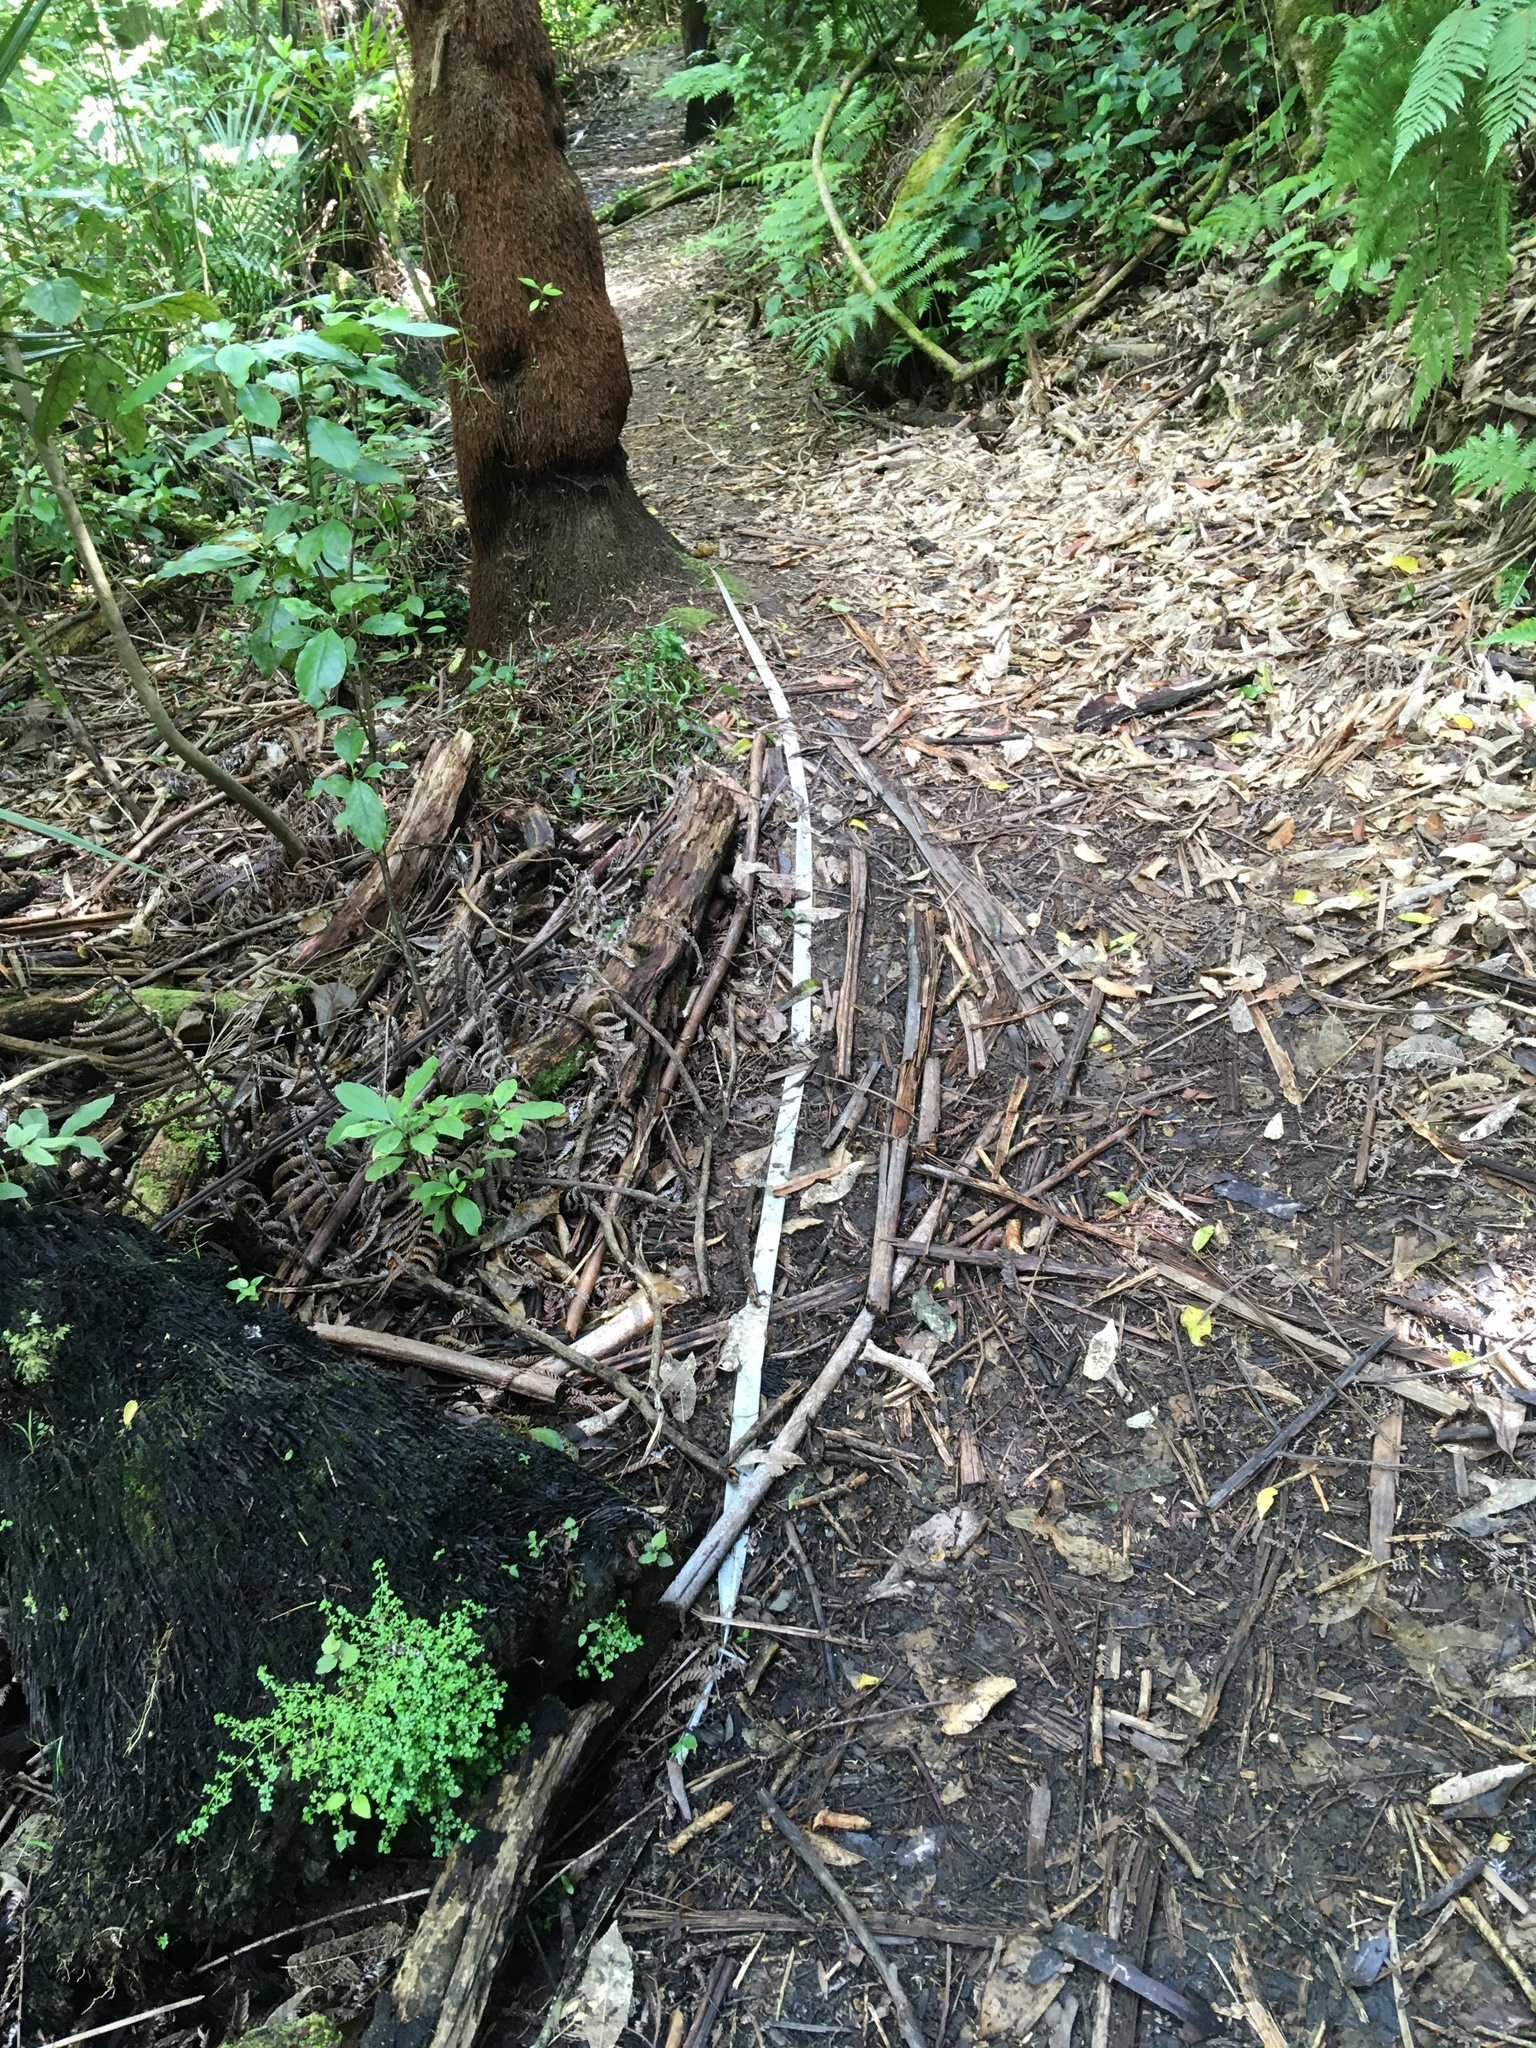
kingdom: Plantae
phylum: Tracheophyta
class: Liliopsida
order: Asparagales
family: Asparagaceae
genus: Cordyline
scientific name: Cordyline australis
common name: Cabbage-palm
